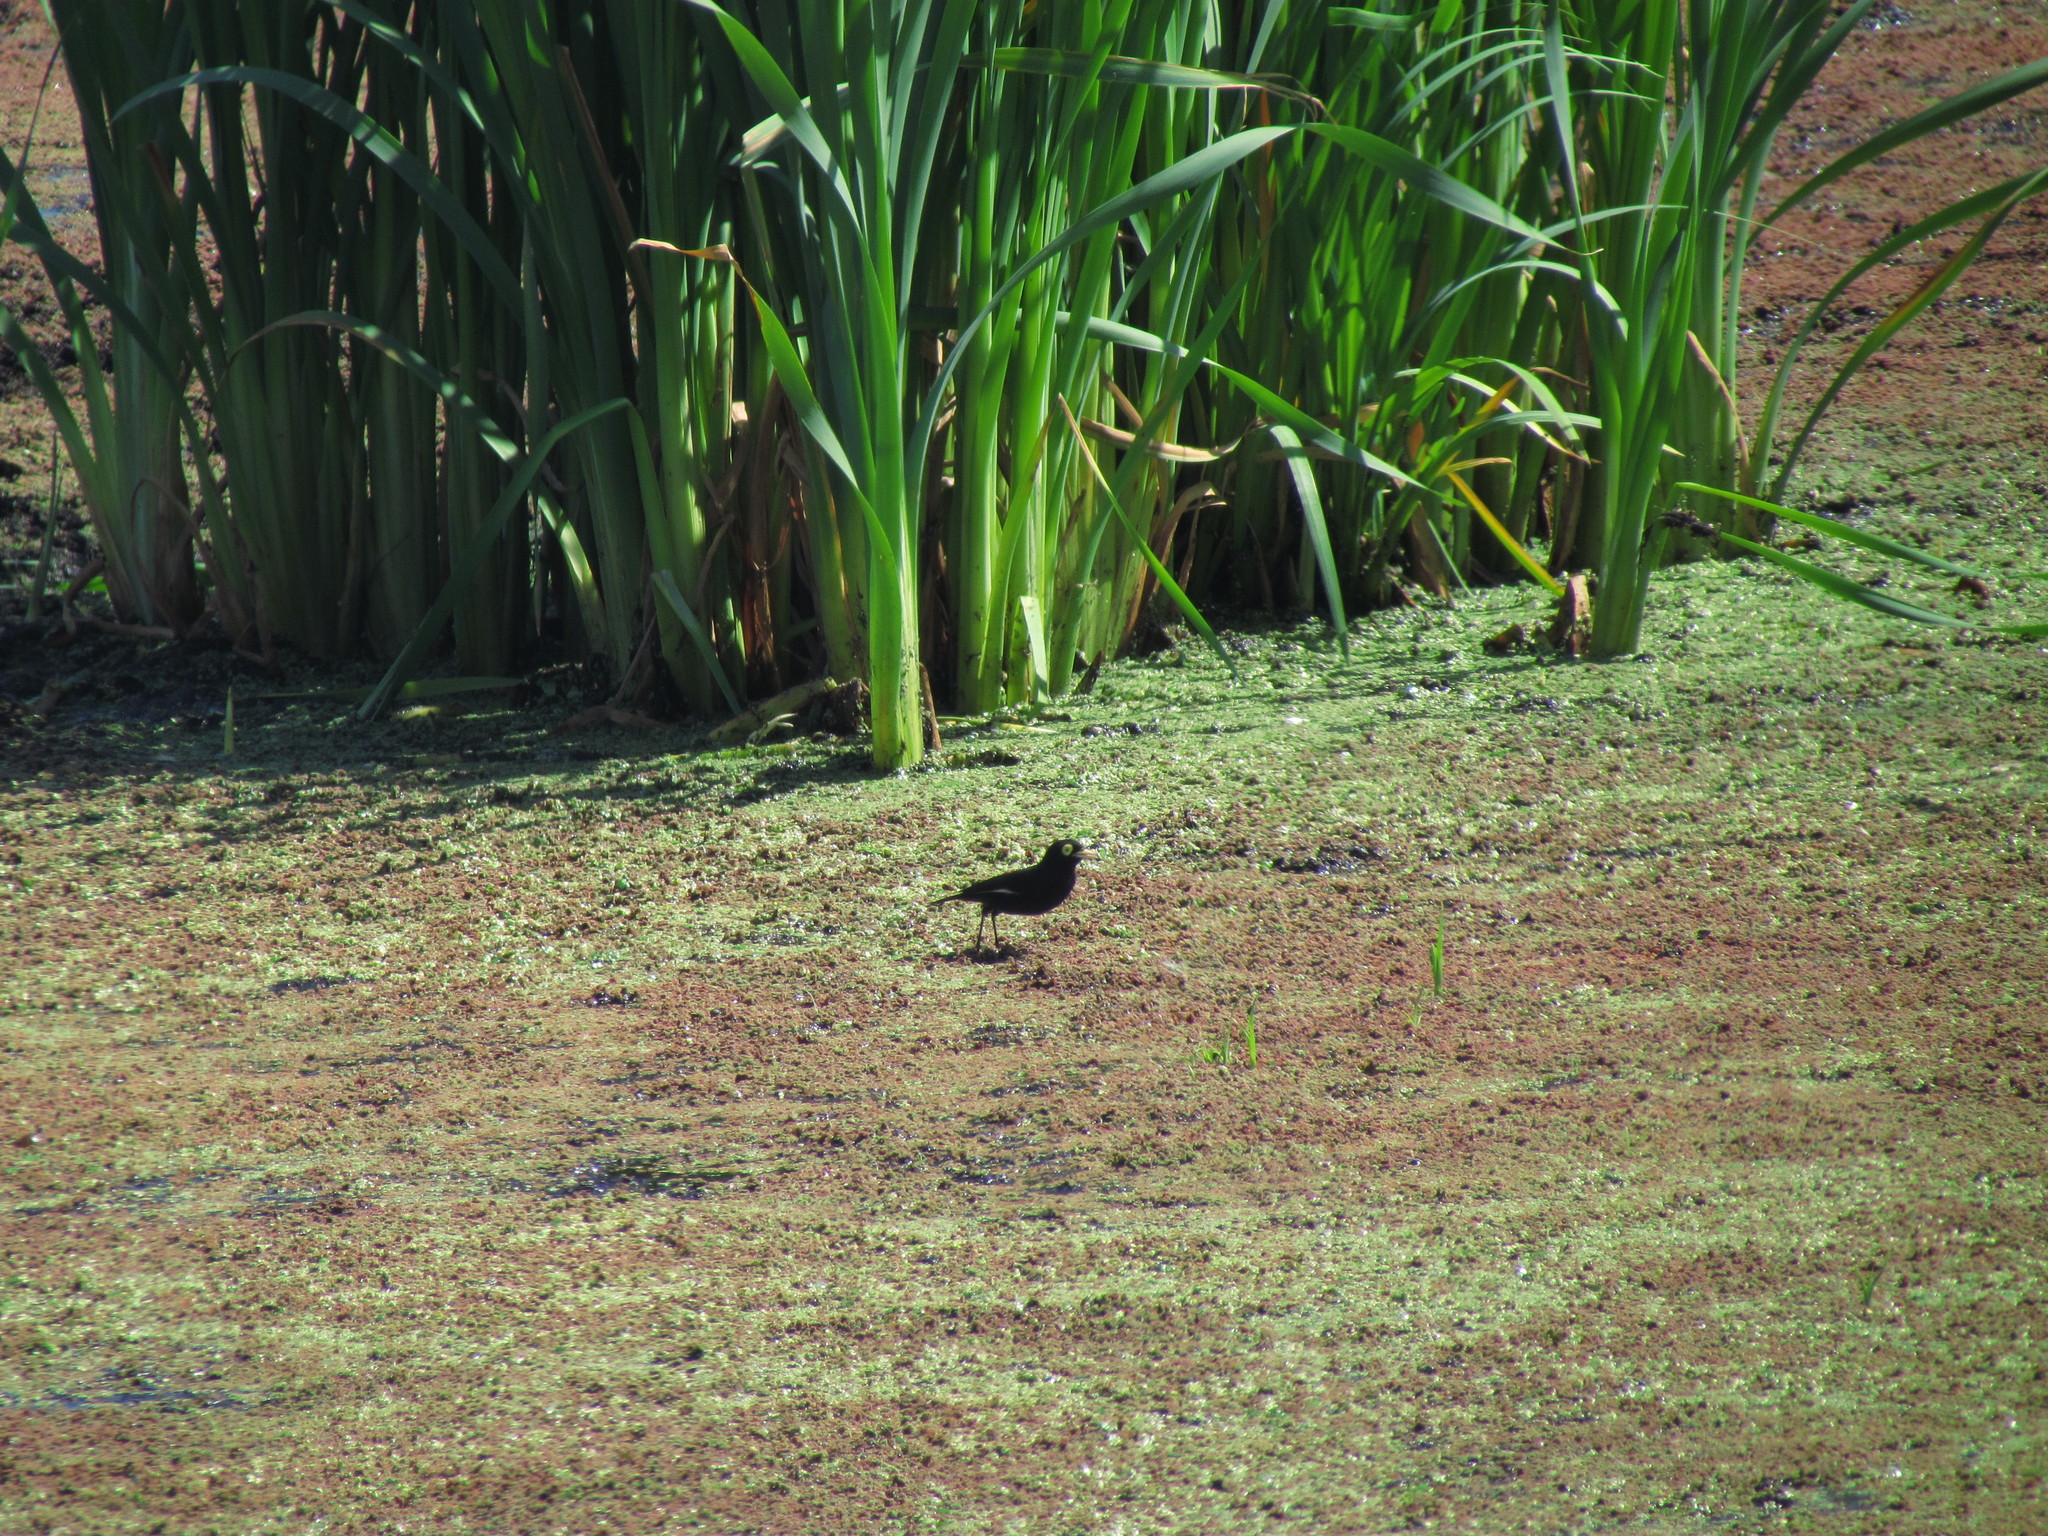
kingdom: Animalia
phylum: Chordata
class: Aves
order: Passeriformes
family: Tyrannidae
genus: Hymenops
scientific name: Hymenops perspicillatus
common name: Spectacled tyrant
